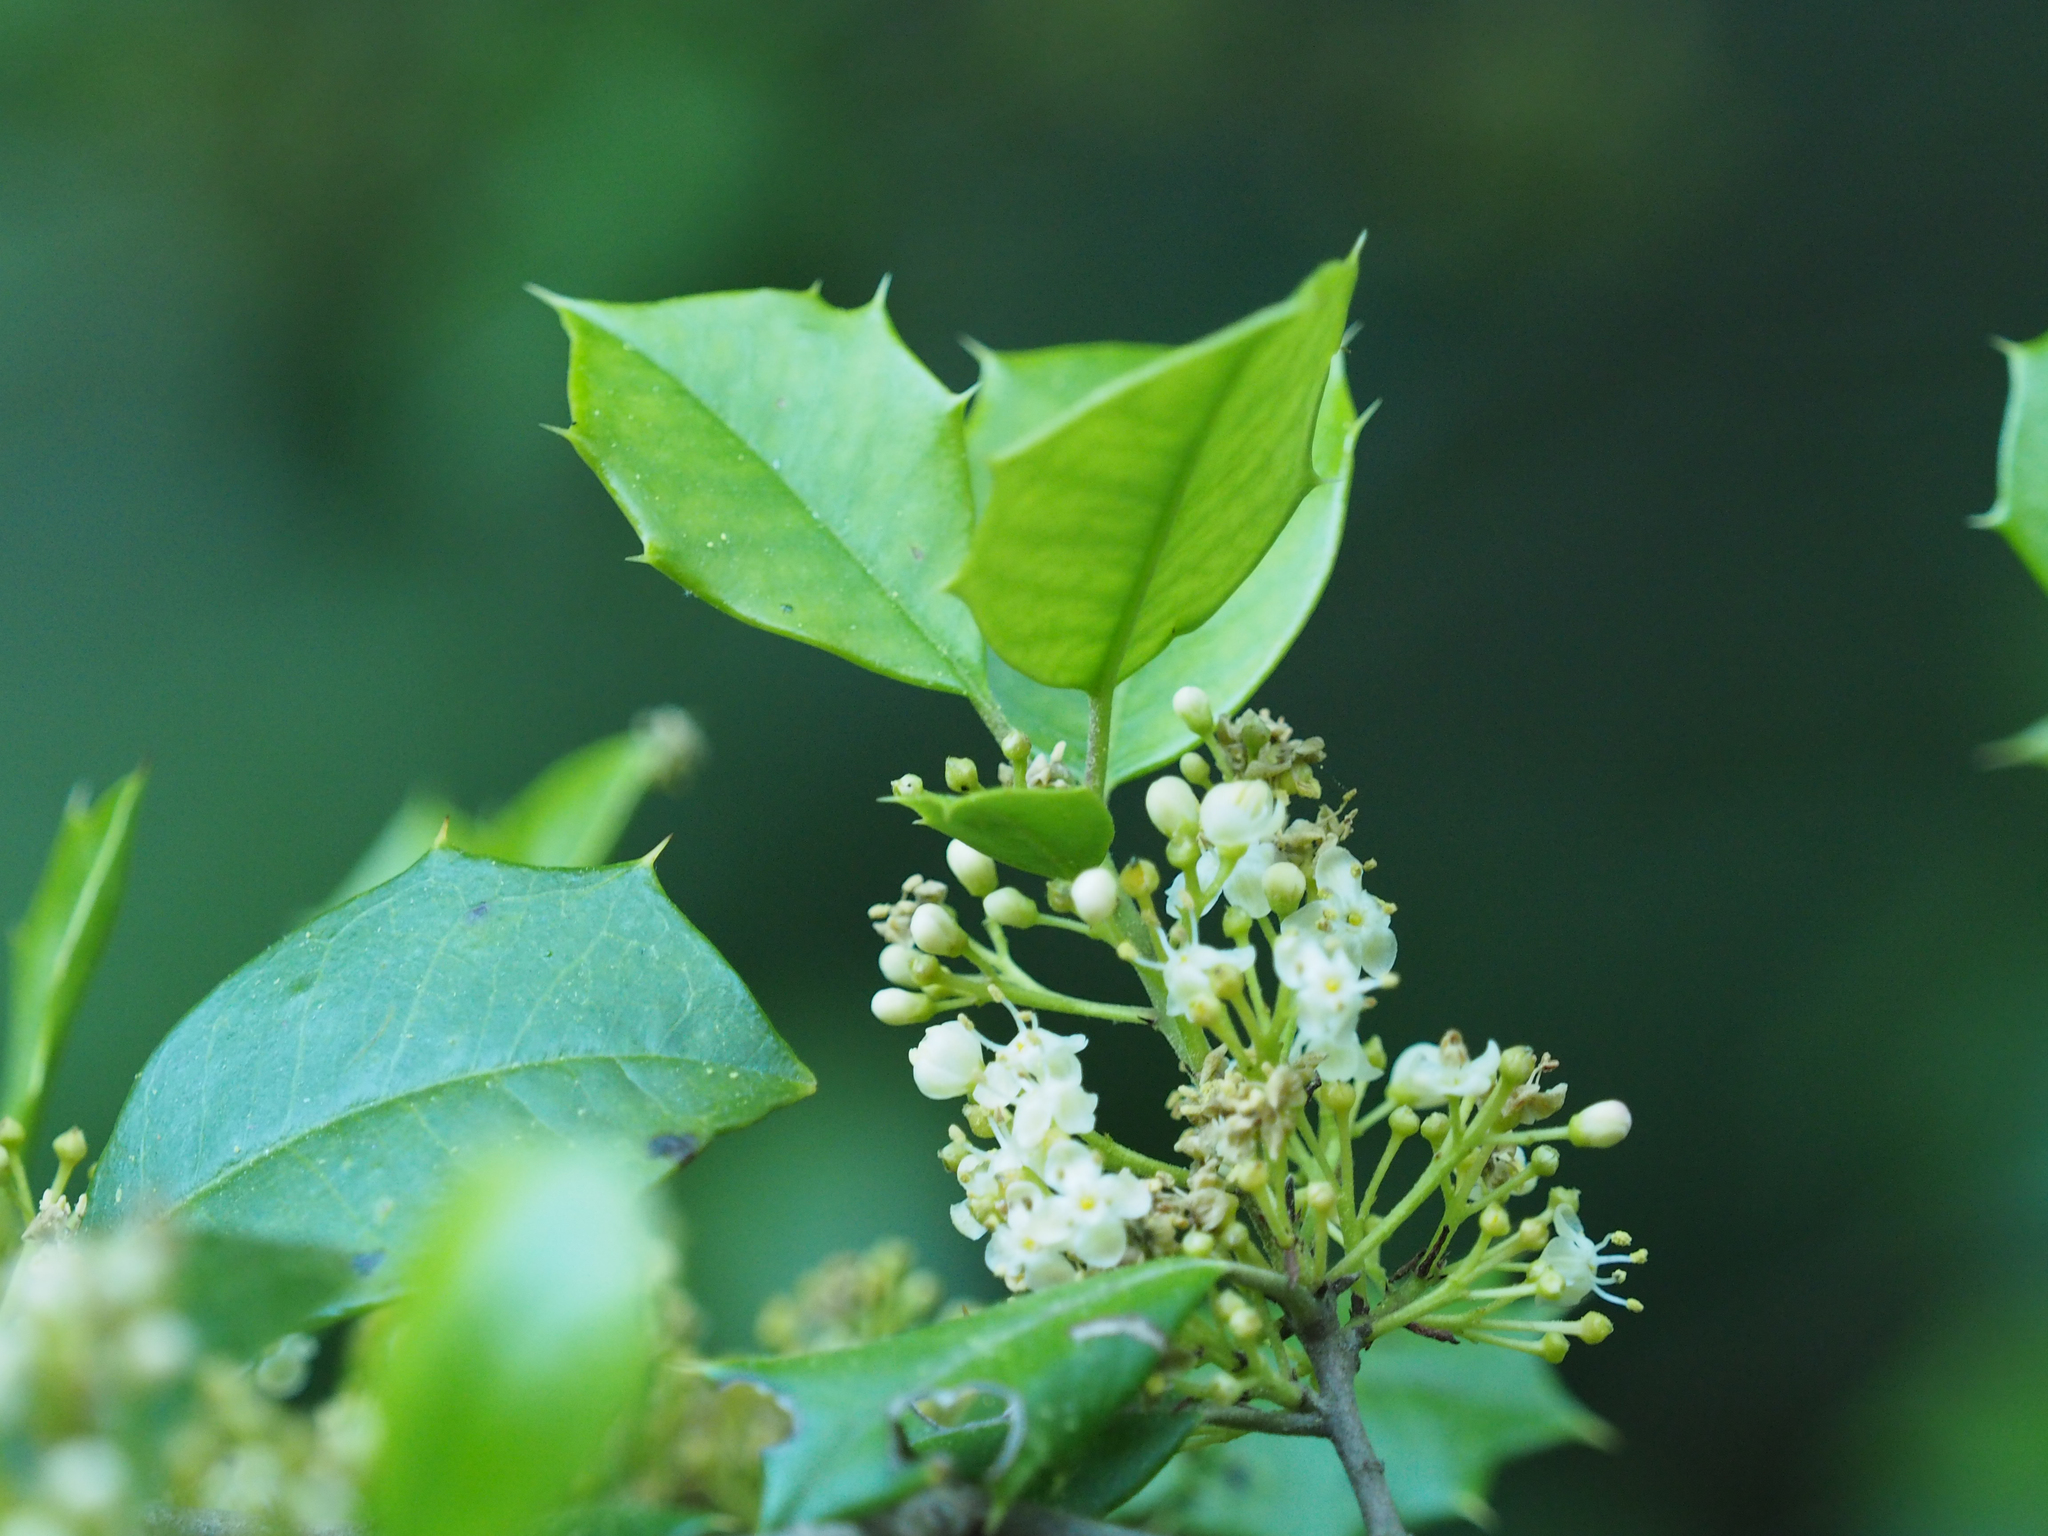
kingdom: Plantae
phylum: Tracheophyta
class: Magnoliopsida
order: Aquifoliales
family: Aquifoliaceae
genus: Ilex
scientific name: Ilex opaca
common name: American holly
